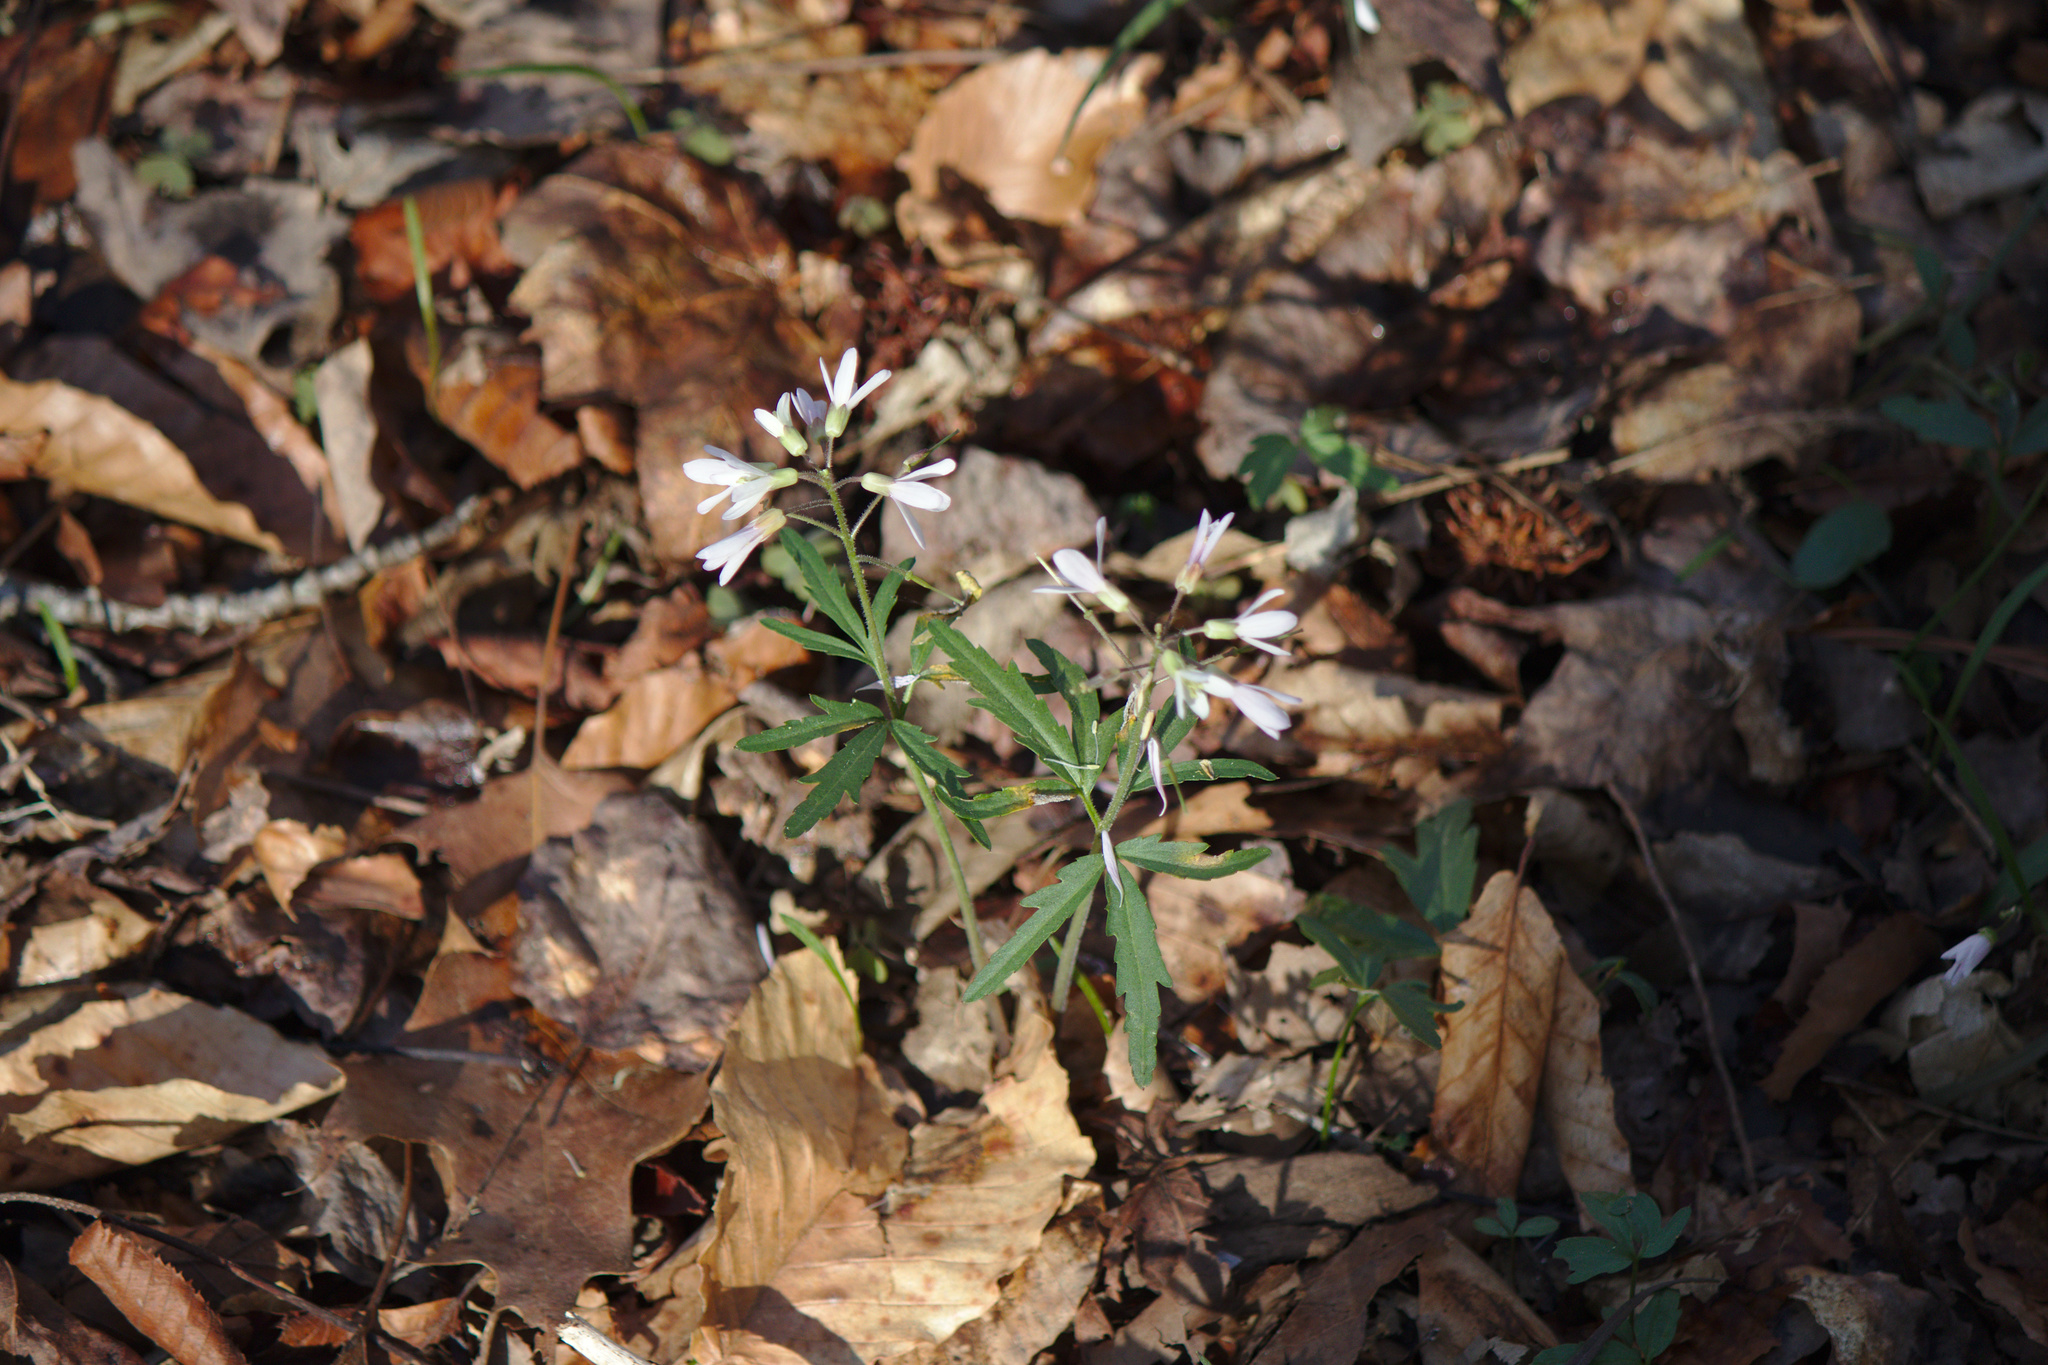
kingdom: Plantae
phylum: Tracheophyta
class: Magnoliopsida
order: Brassicales
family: Brassicaceae
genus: Cardamine
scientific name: Cardamine concatenata
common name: Cut-leaf toothcup
